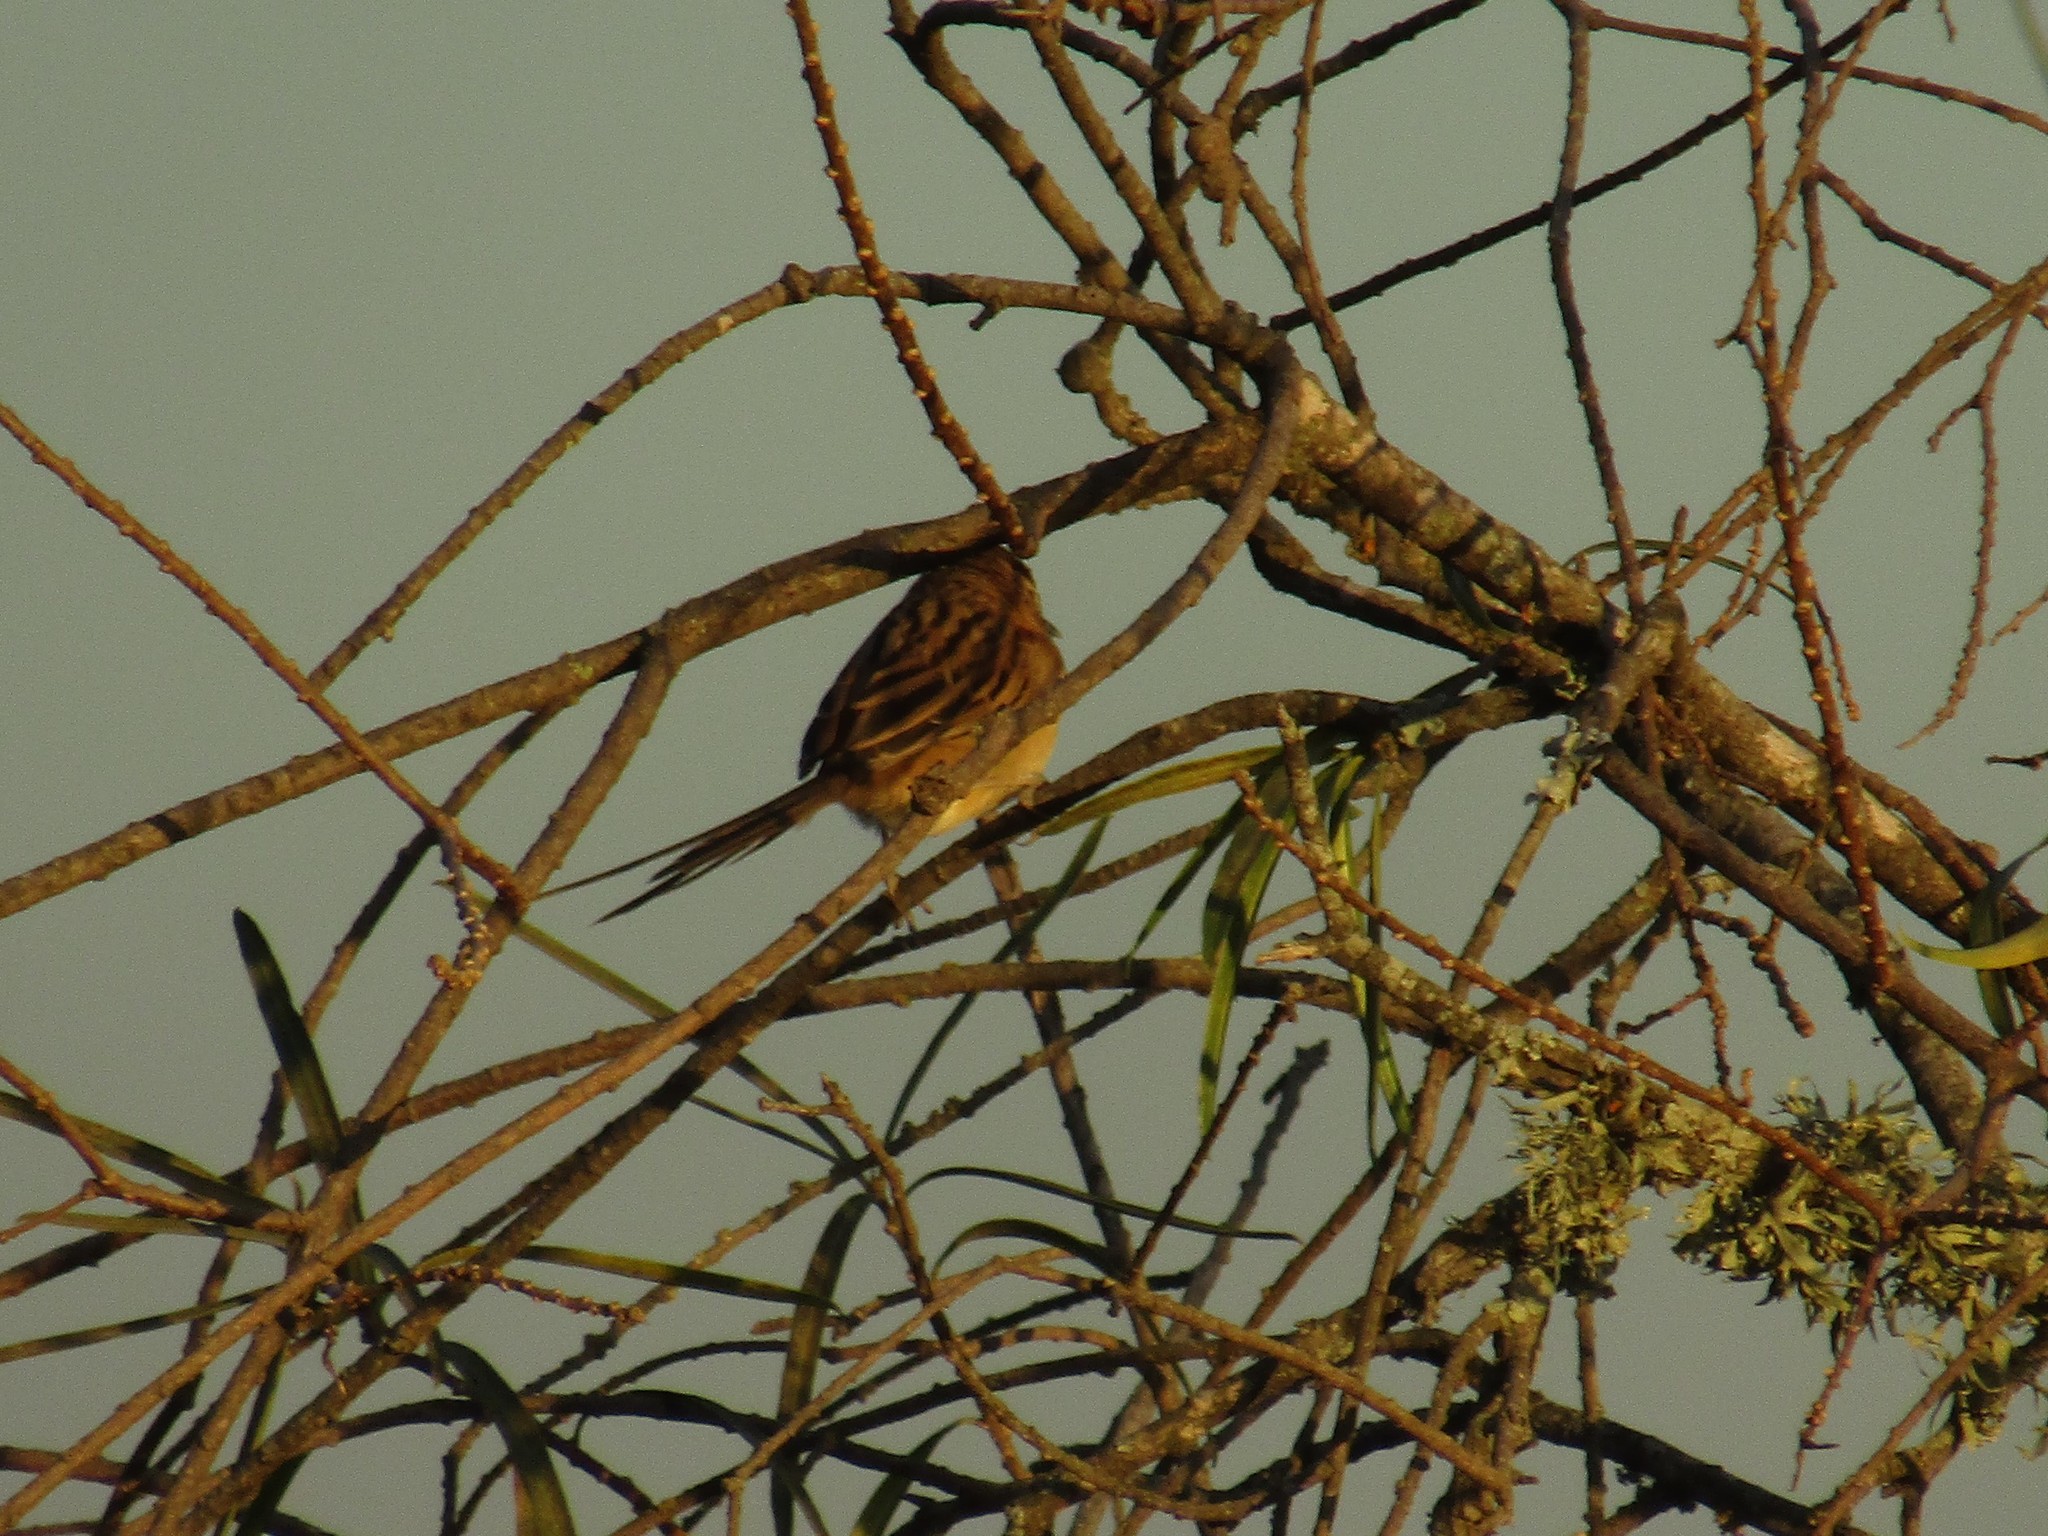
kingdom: Animalia
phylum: Chordata
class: Aves
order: Passeriformes
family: Furnariidae
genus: Schoeniophylax
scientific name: Schoeniophylax phryganophilus
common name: Chotoy spinetail
